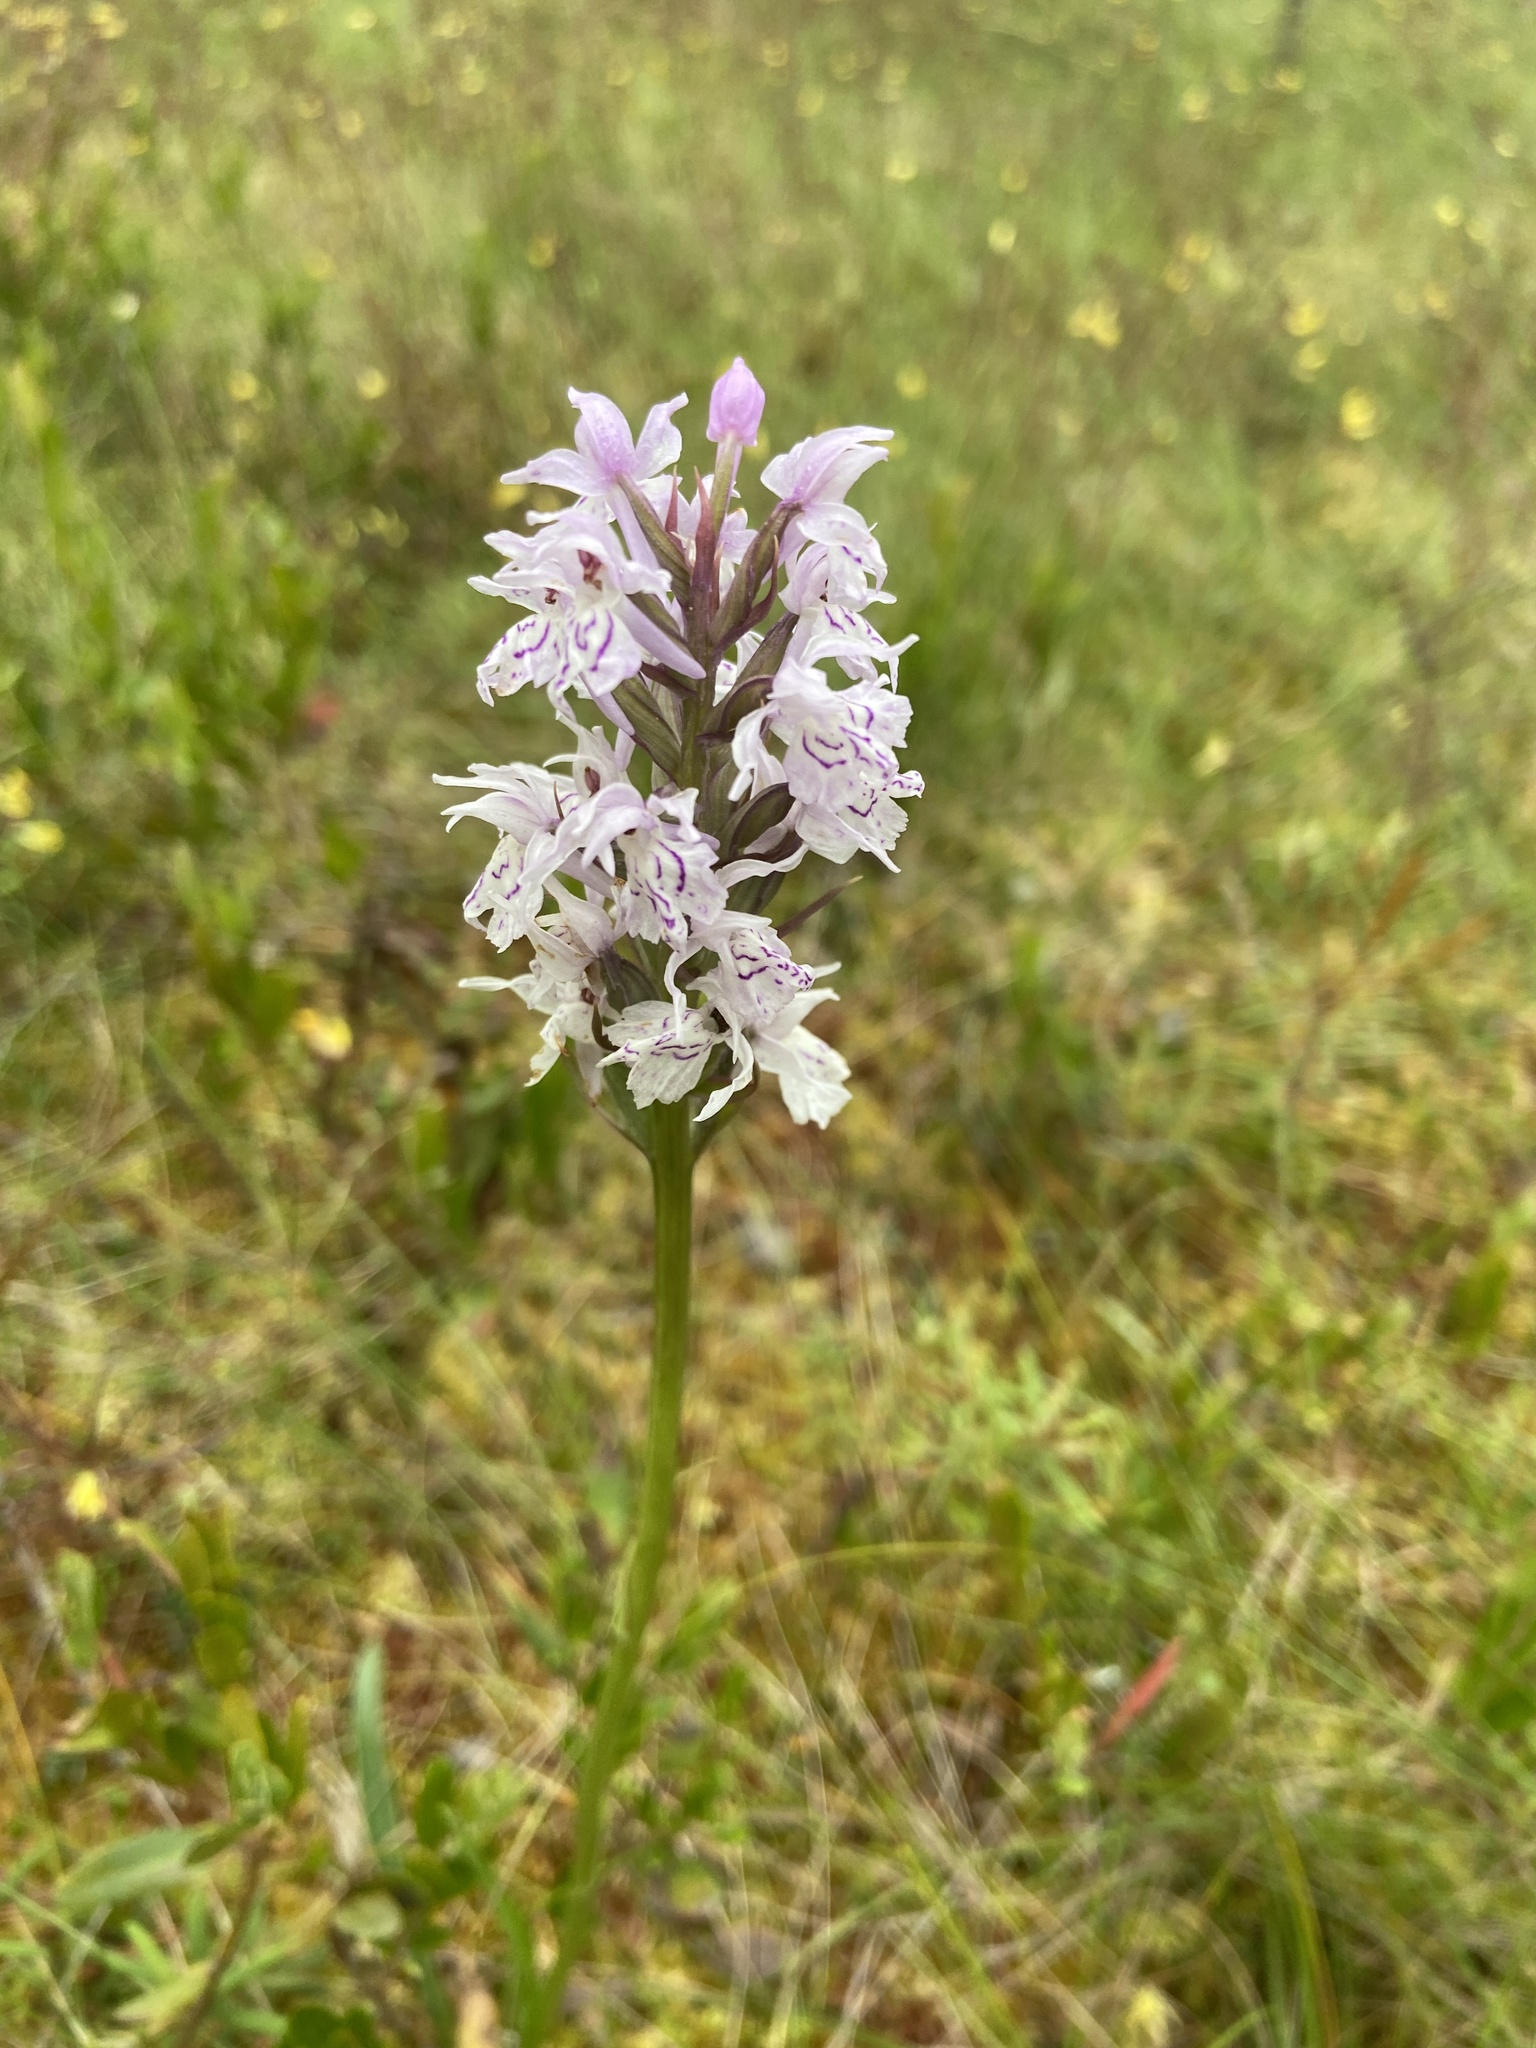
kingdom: Plantae
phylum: Tracheophyta
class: Liliopsida
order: Asparagales
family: Orchidaceae
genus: Dactylorhiza
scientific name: Dactylorhiza maculata
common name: Heath spotted-orchid
